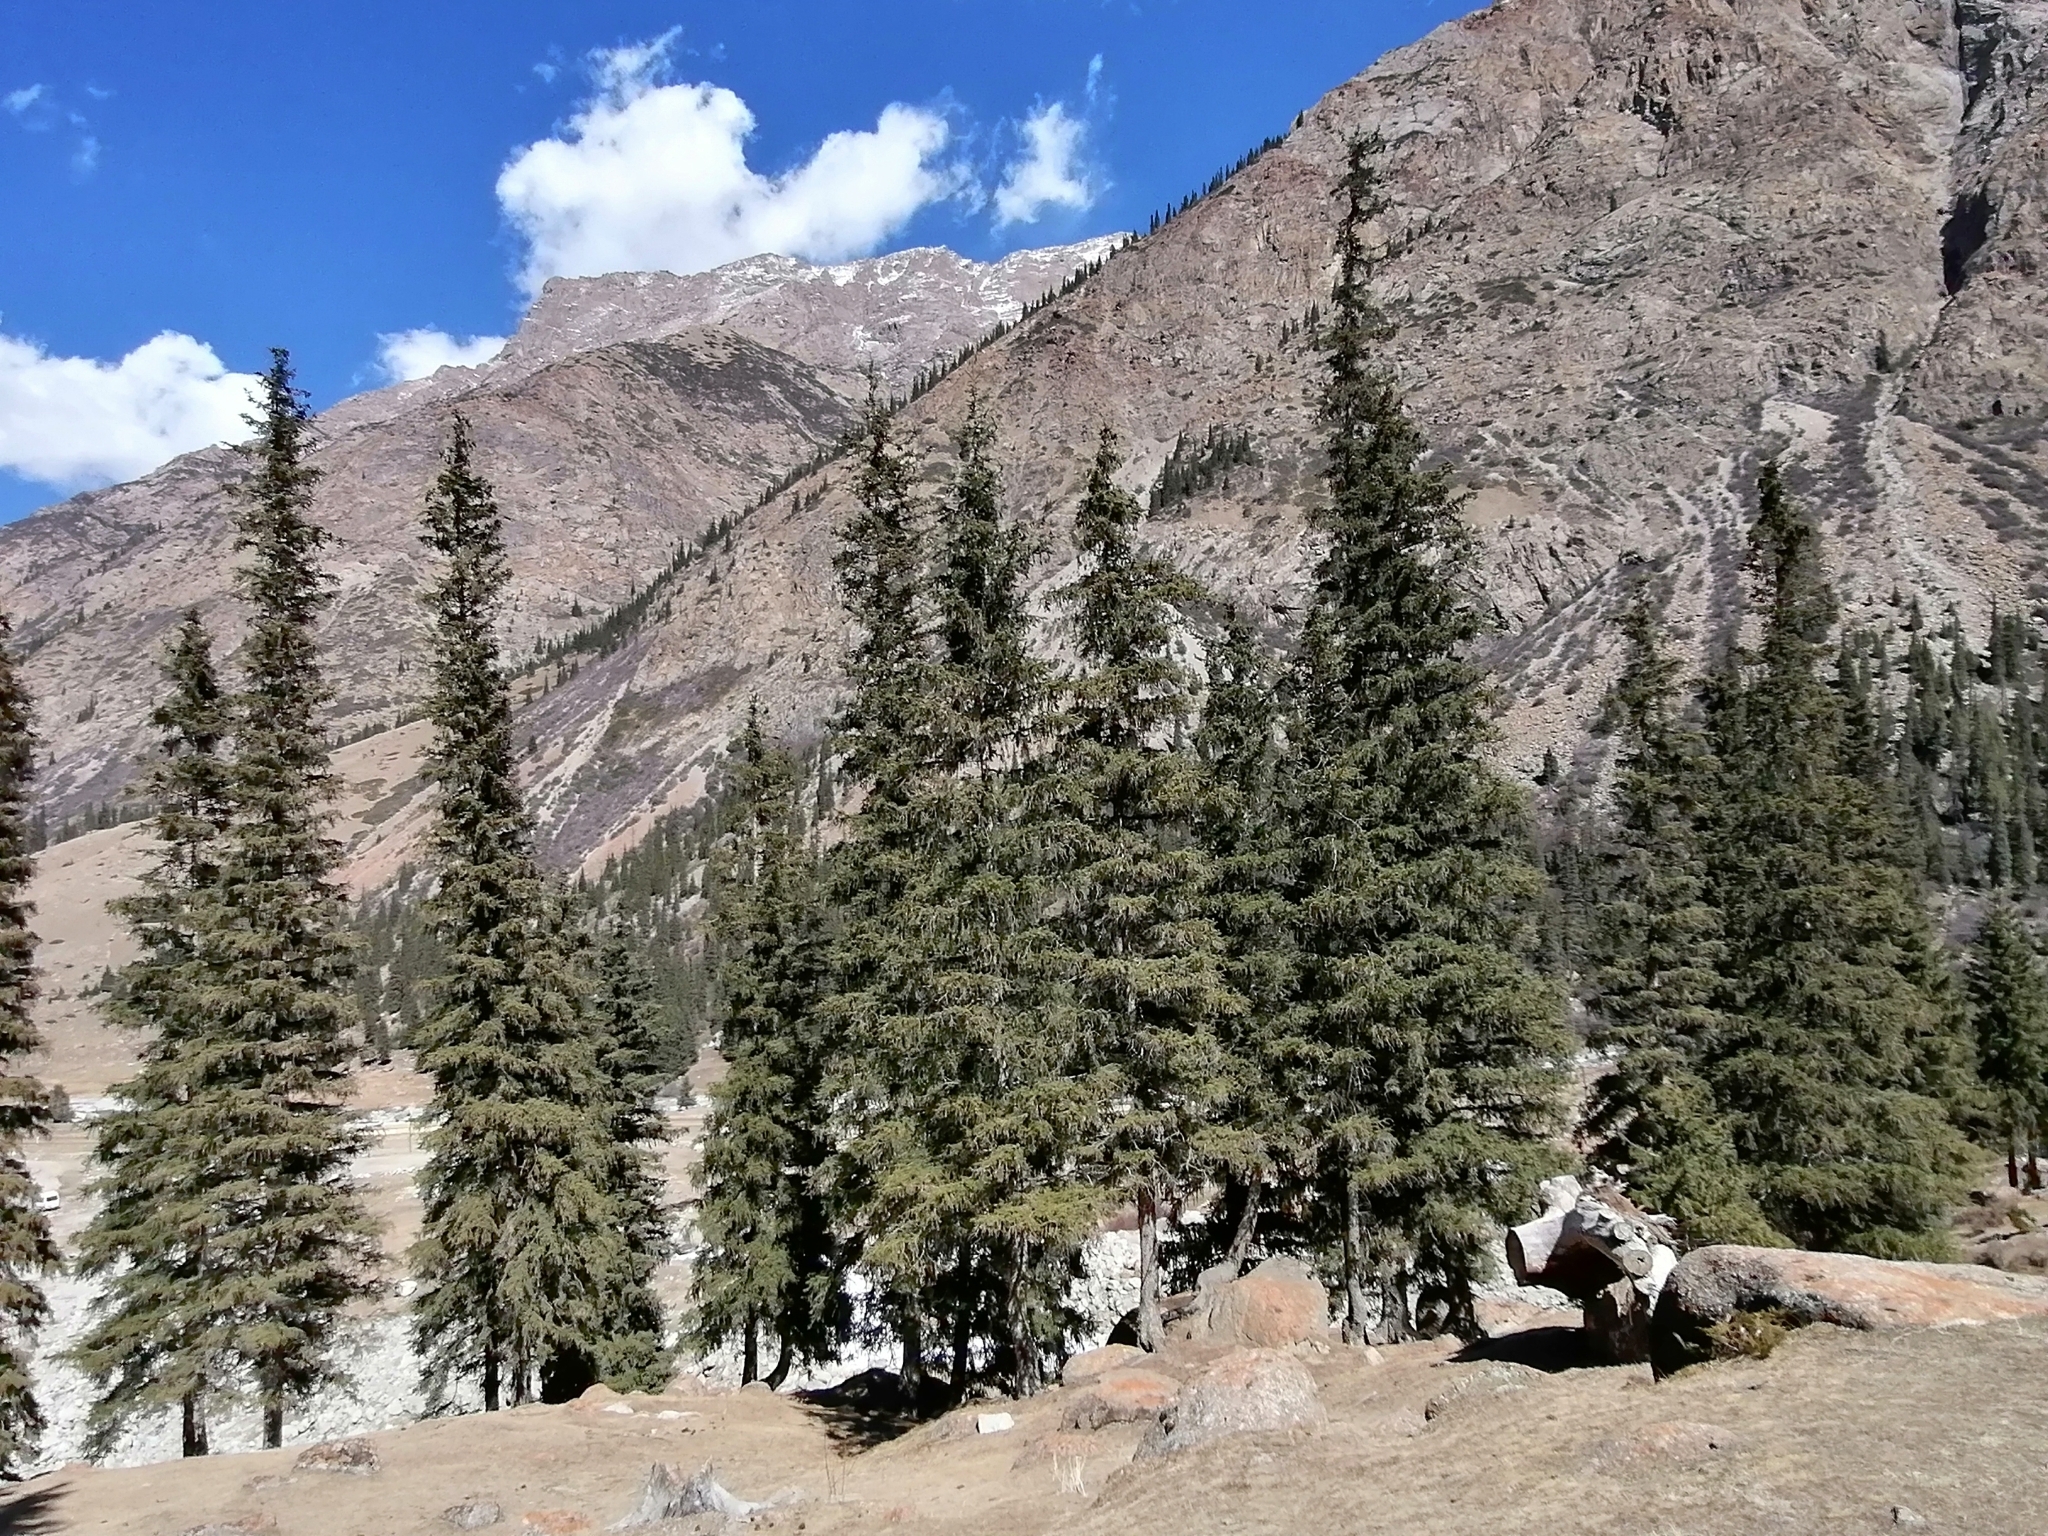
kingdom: Plantae
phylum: Tracheophyta
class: Pinopsida
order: Pinales
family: Pinaceae
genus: Picea
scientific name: Picea schrenkiana
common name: Asian spruce
